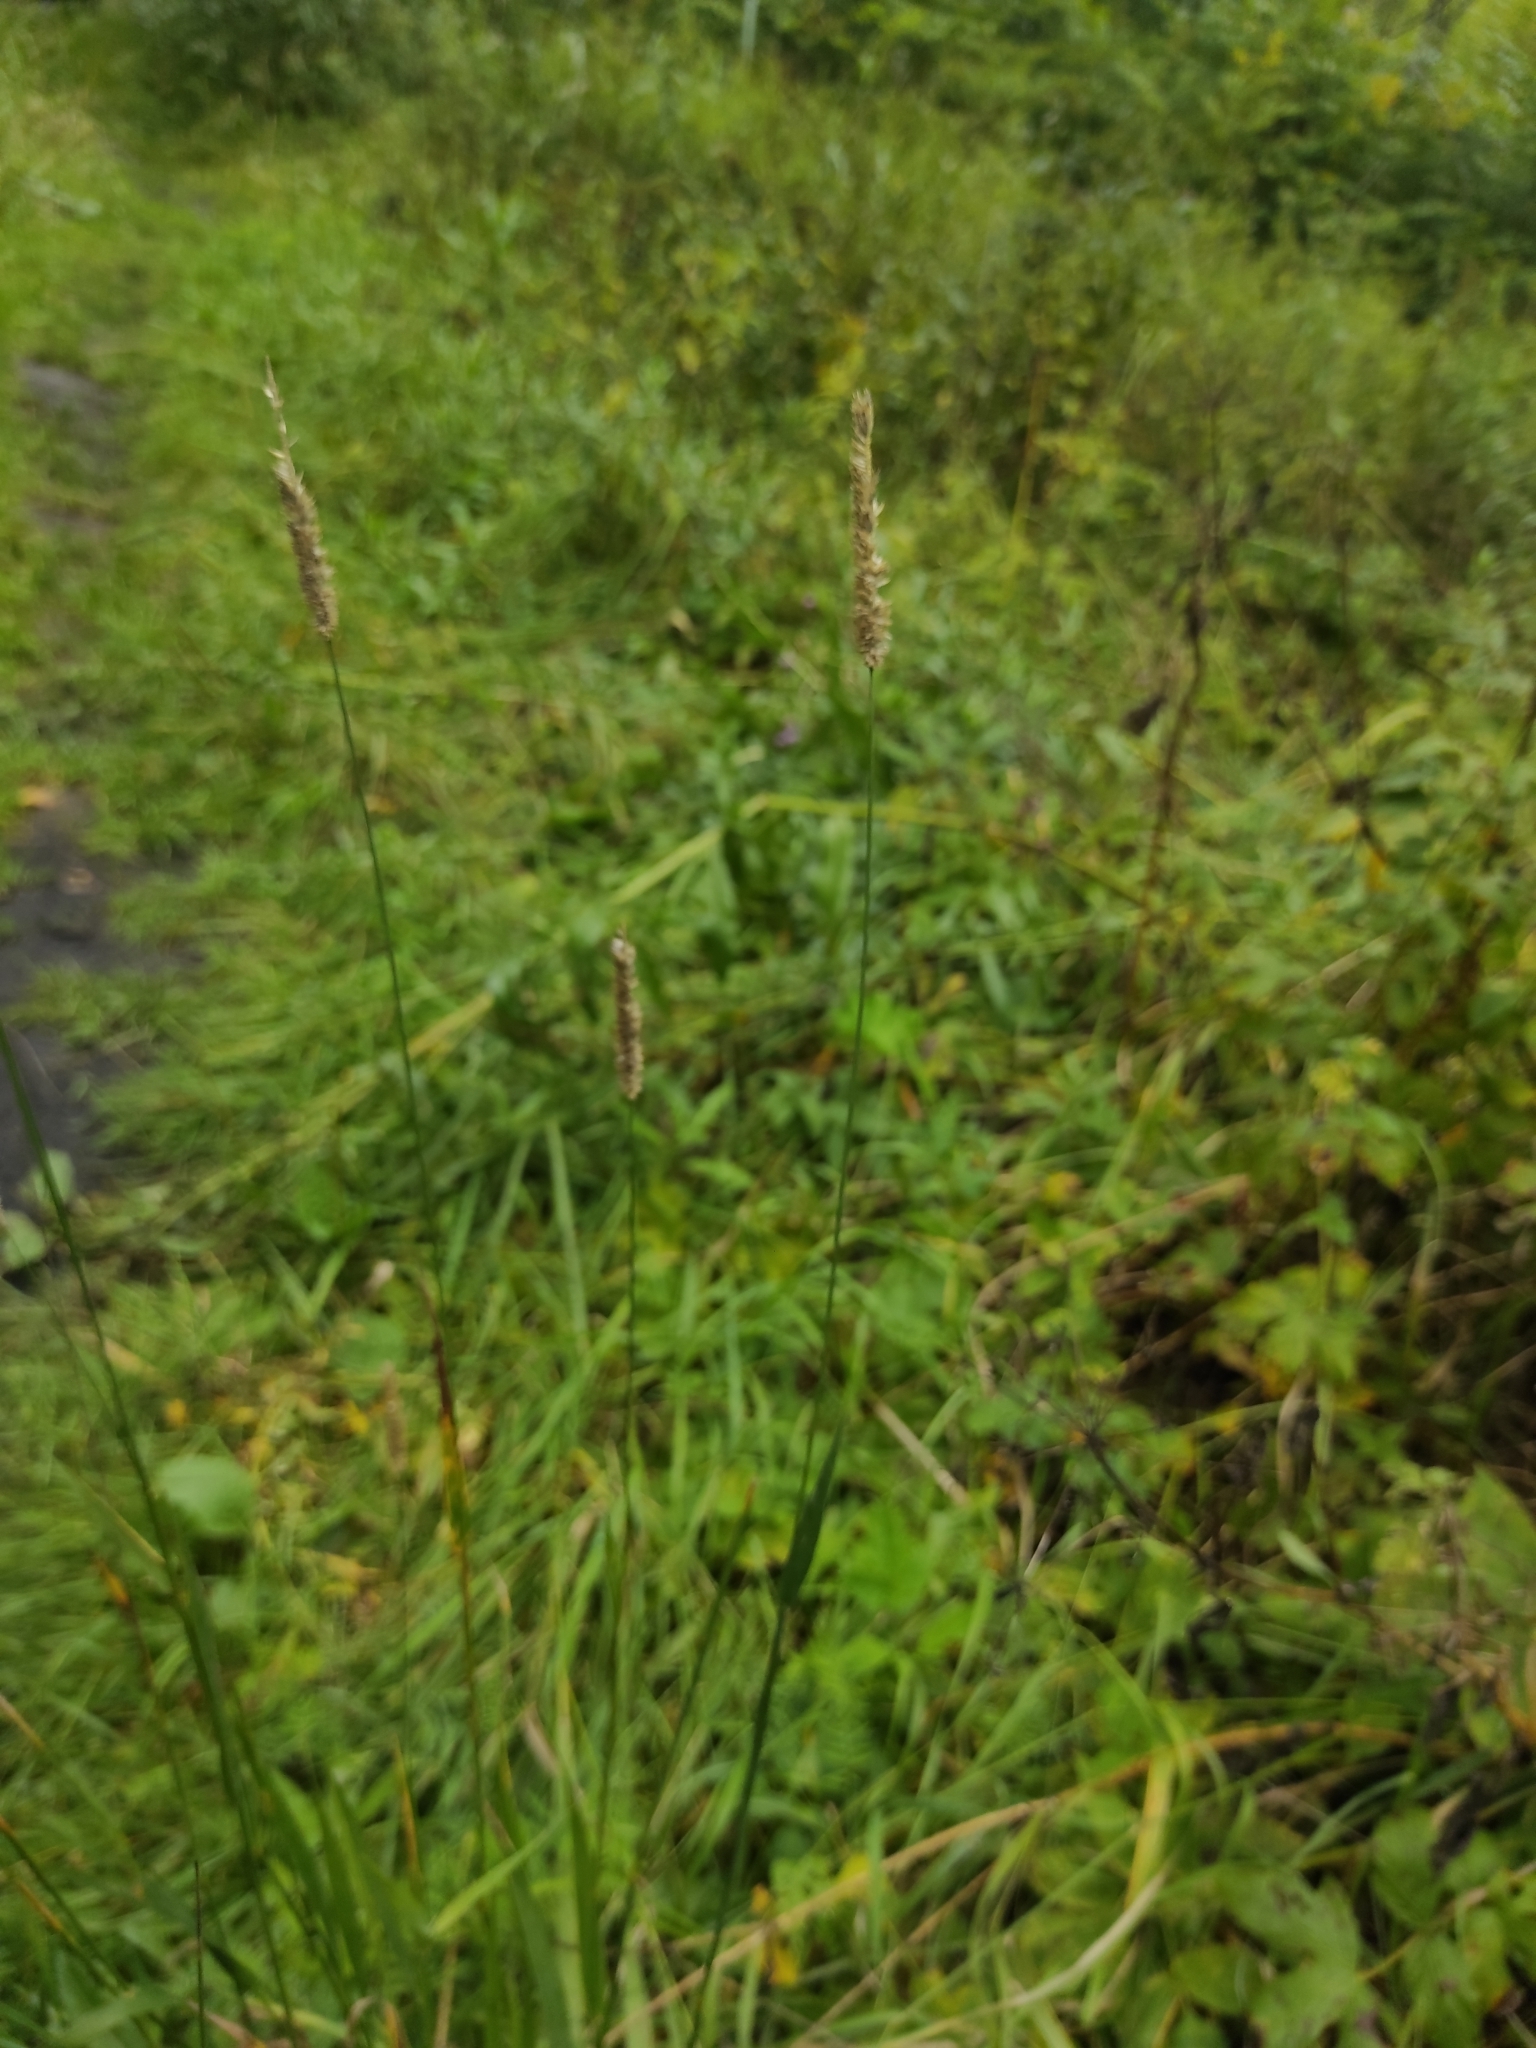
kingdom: Plantae
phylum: Tracheophyta
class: Liliopsida
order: Poales
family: Poaceae
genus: Phleum
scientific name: Phleum pratense
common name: Timothy grass
